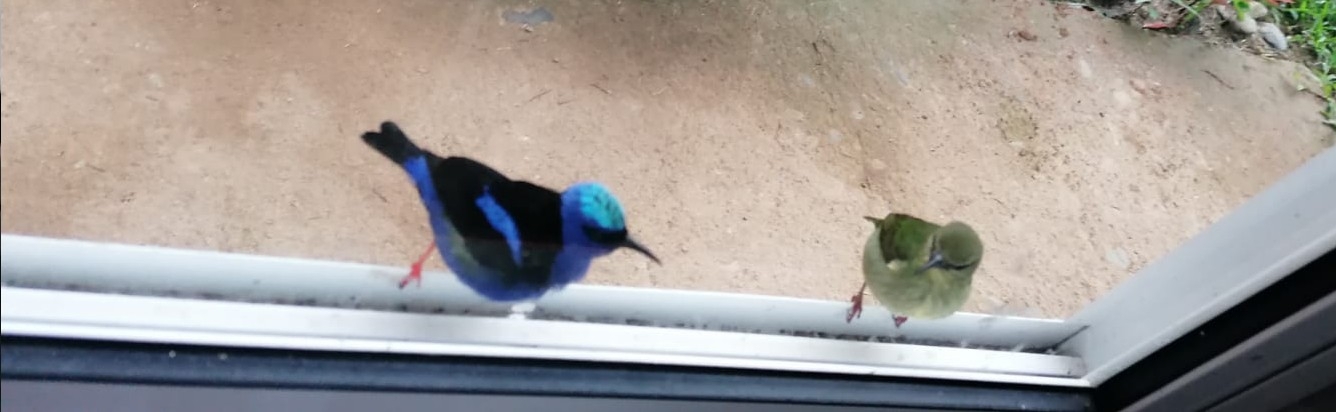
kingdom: Animalia
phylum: Chordata
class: Aves
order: Passeriformes
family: Thraupidae
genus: Cyanerpes
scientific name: Cyanerpes cyaneus
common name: Red-legged honeycreeper
